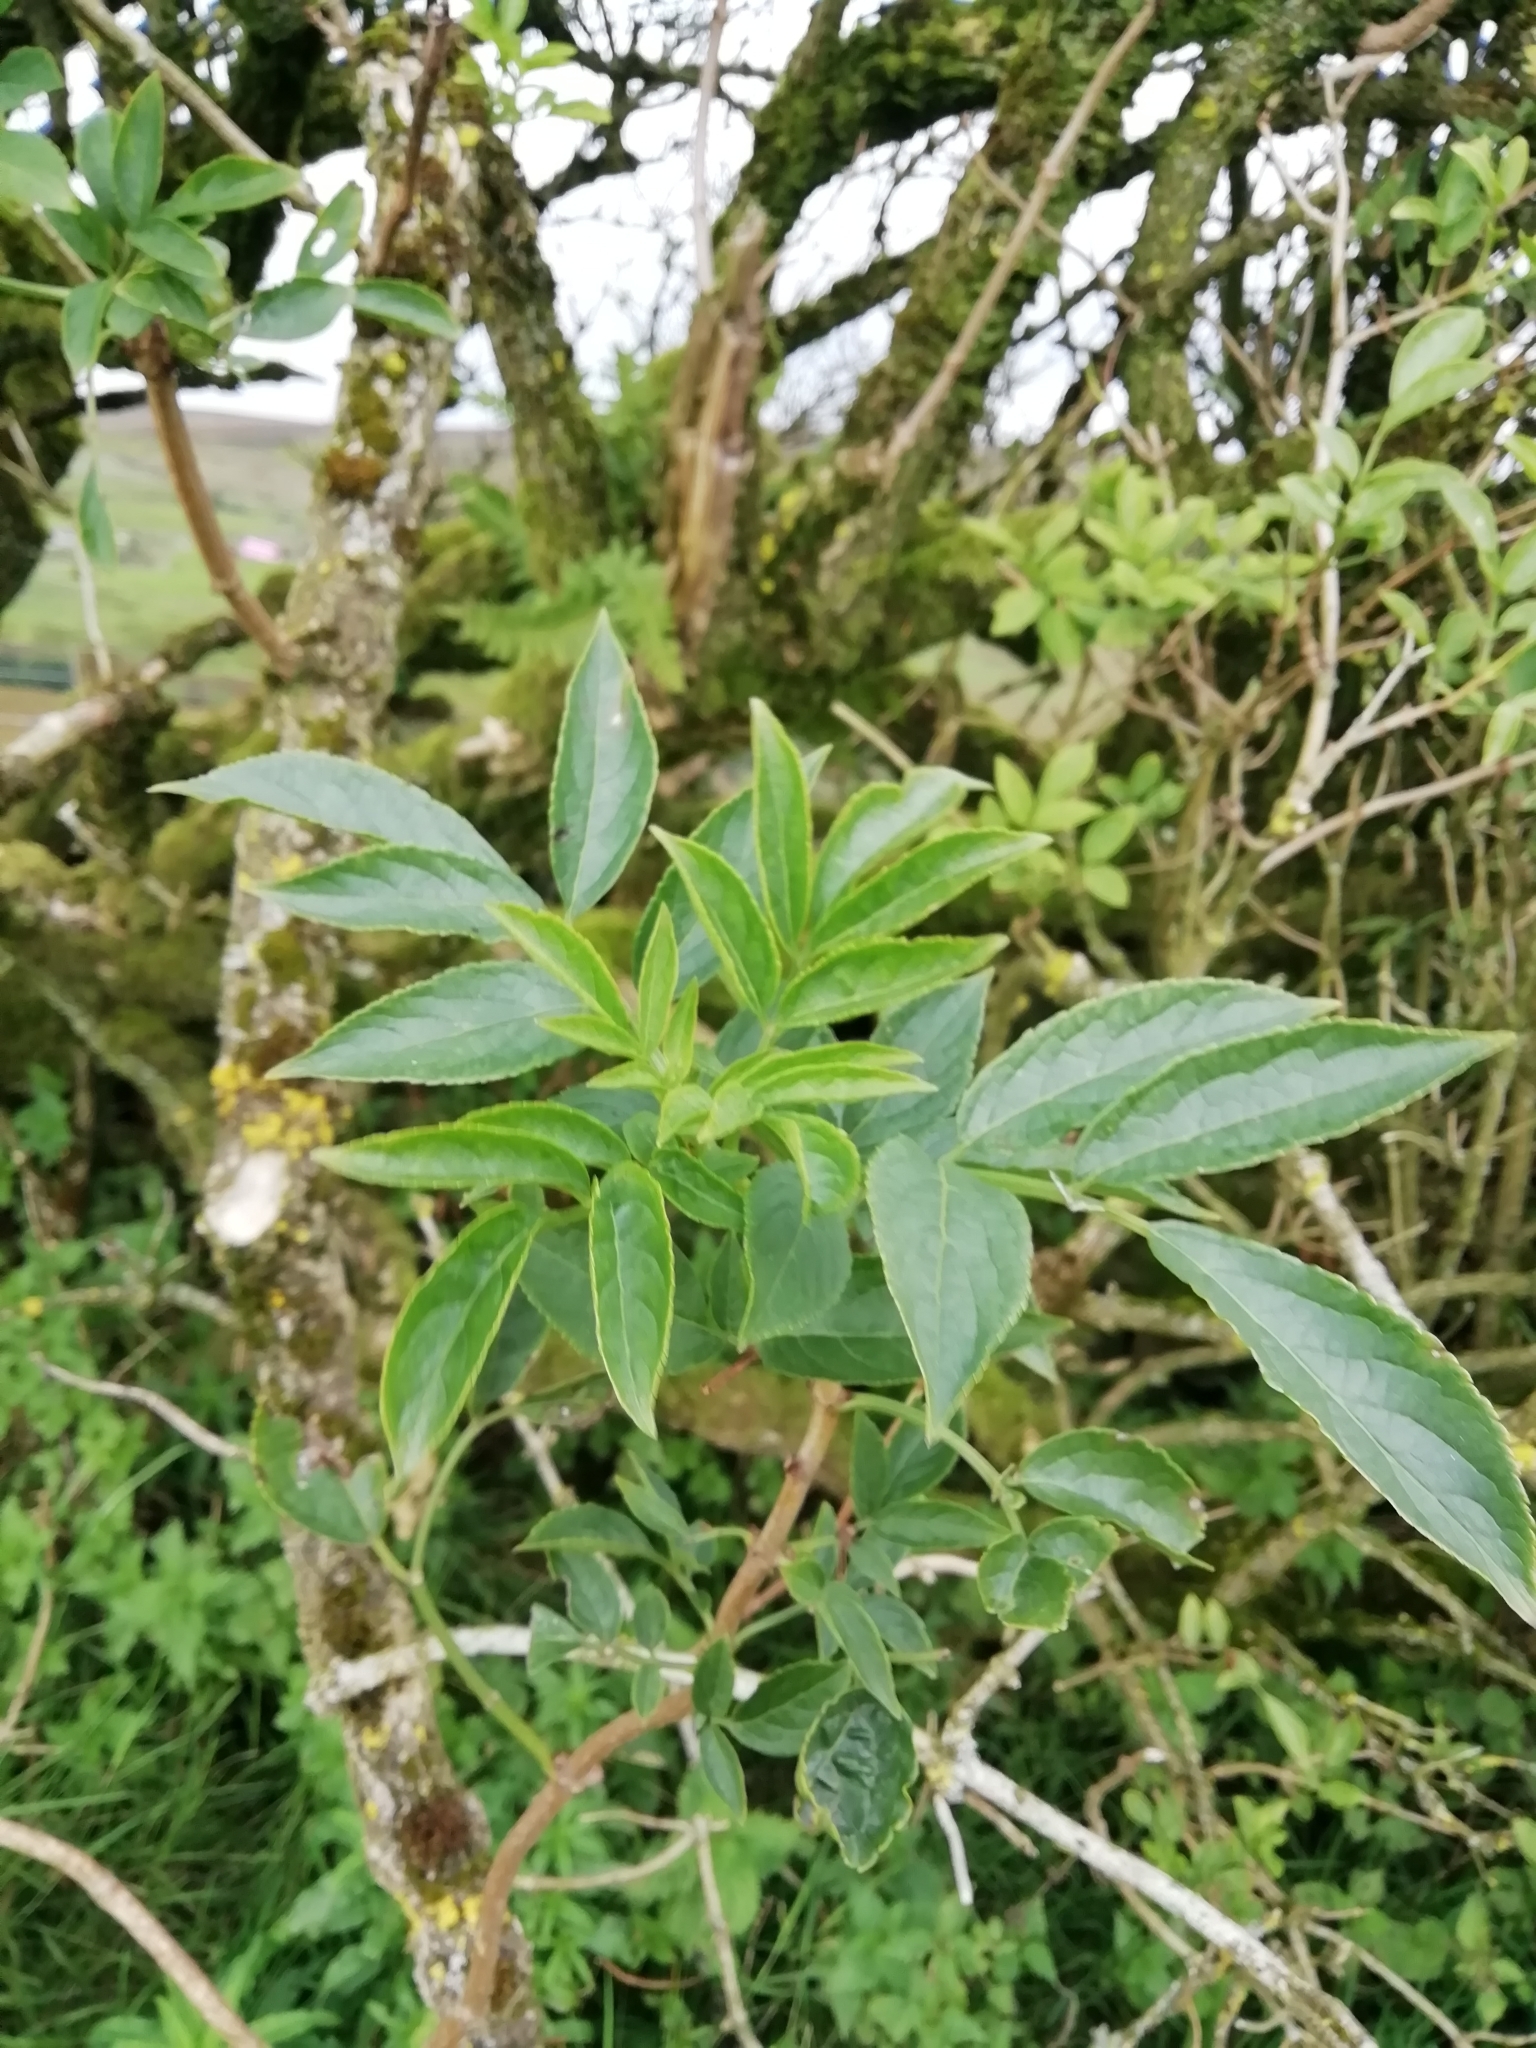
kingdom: Plantae
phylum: Tracheophyta
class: Magnoliopsida
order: Dipsacales
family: Viburnaceae
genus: Sambucus
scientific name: Sambucus nigra
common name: Elder
